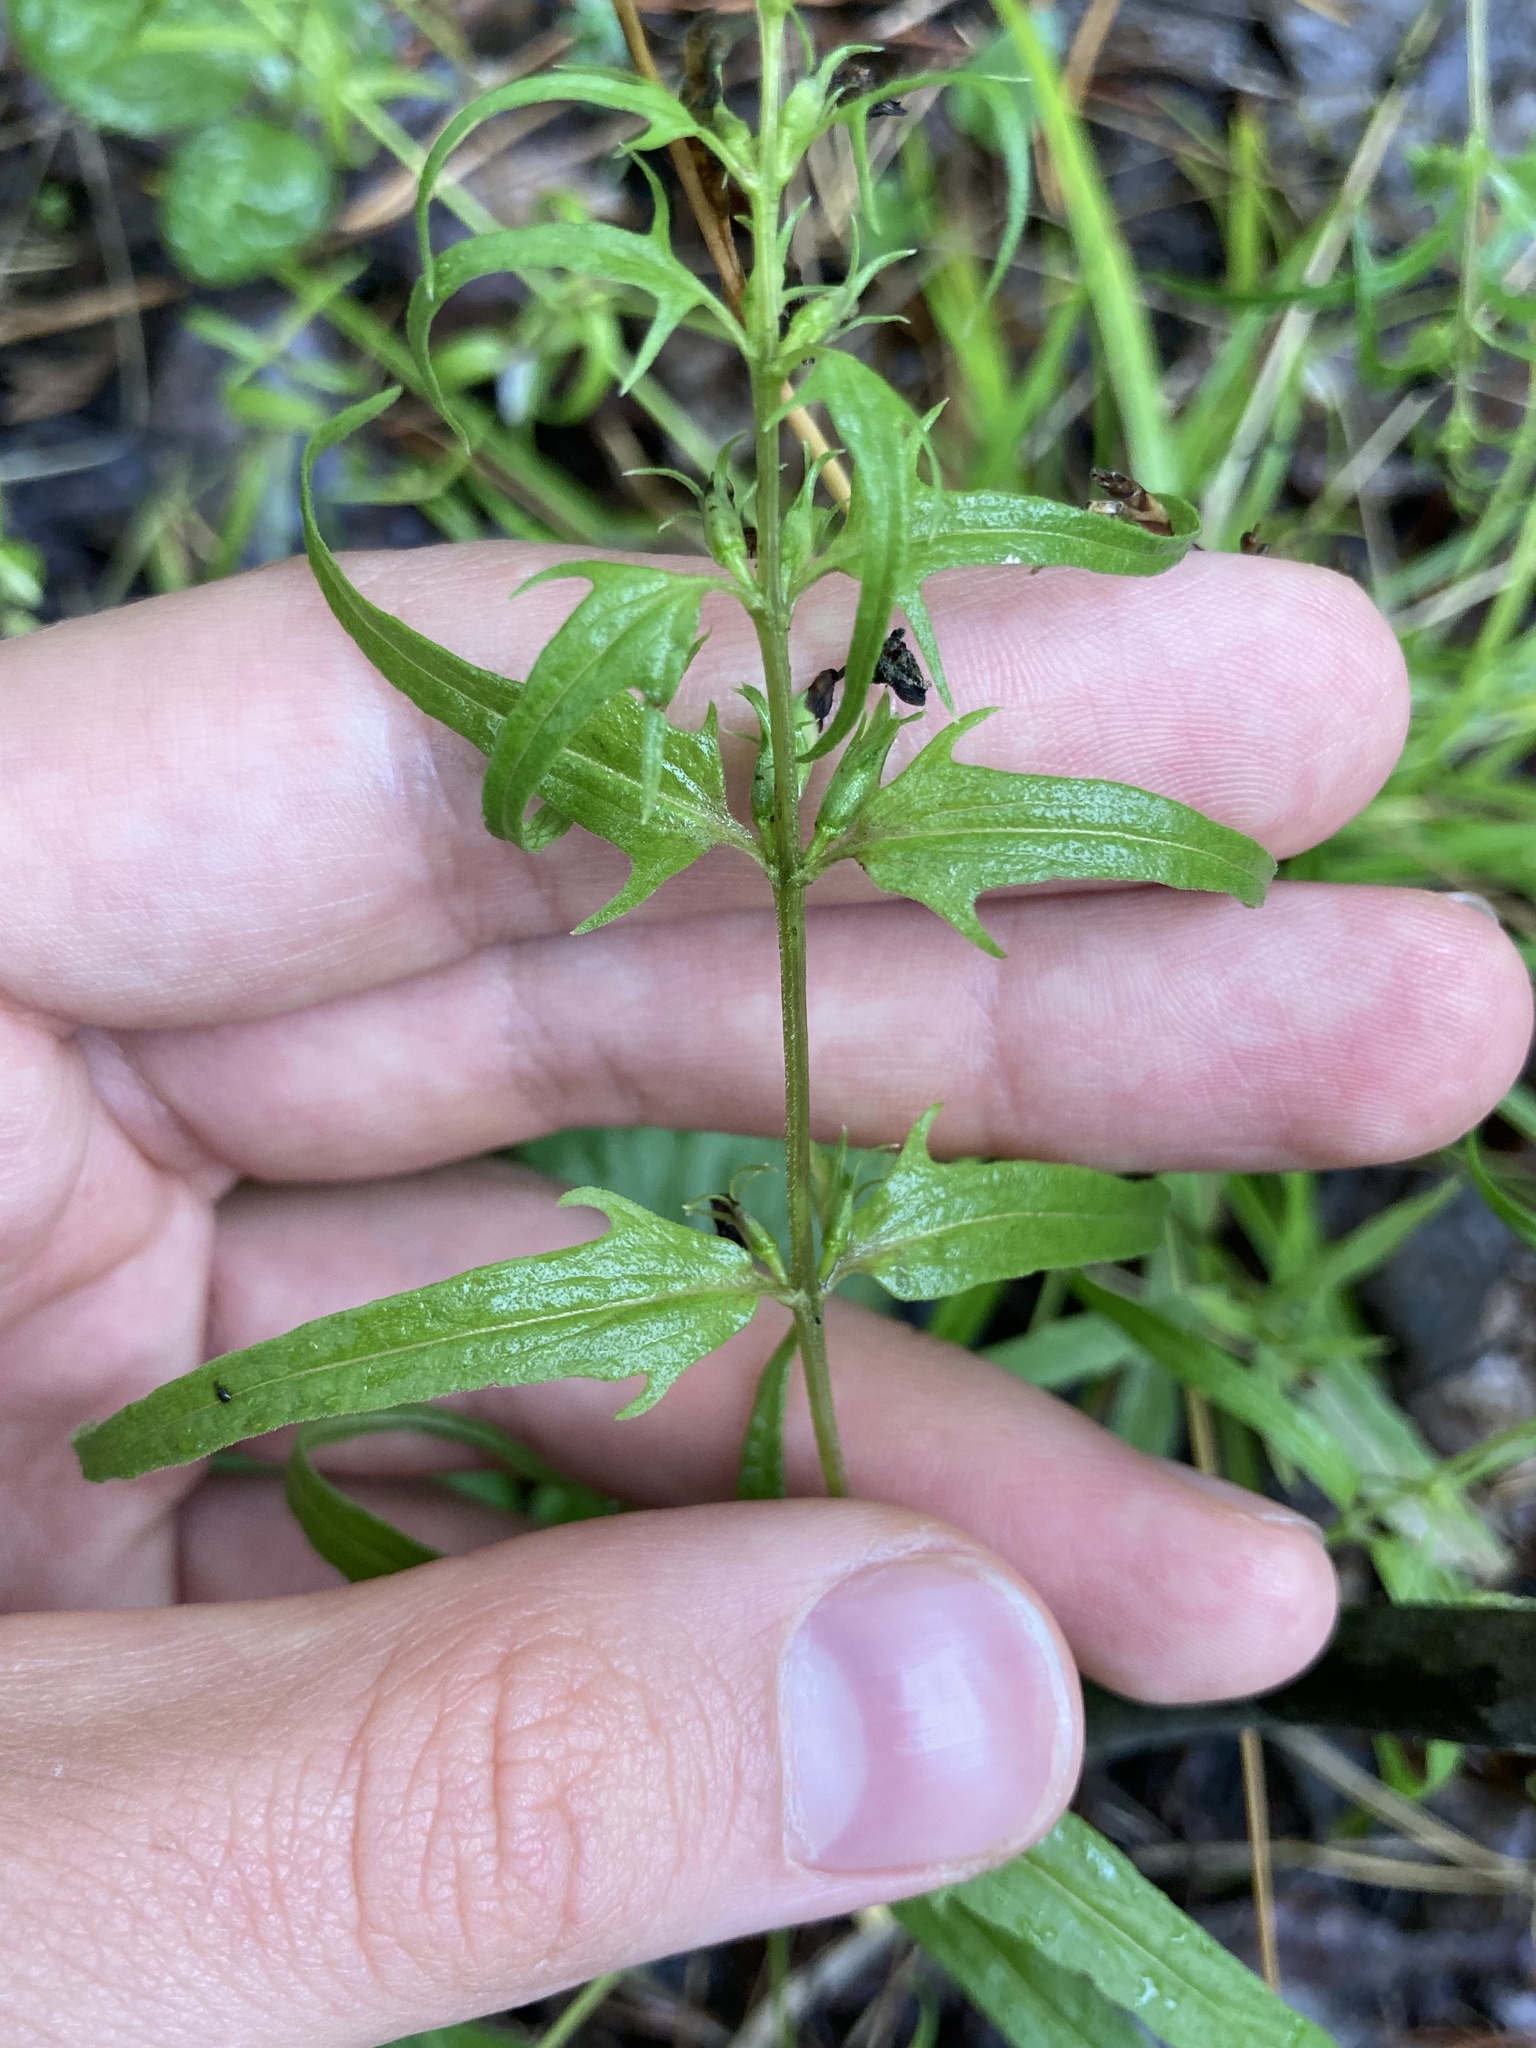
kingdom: Plantae
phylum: Tracheophyta
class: Magnoliopsida
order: Lamiales
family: Orobanchaceae
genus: Melampyrum
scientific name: Melampyrum pratense
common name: Common cow-wheat
